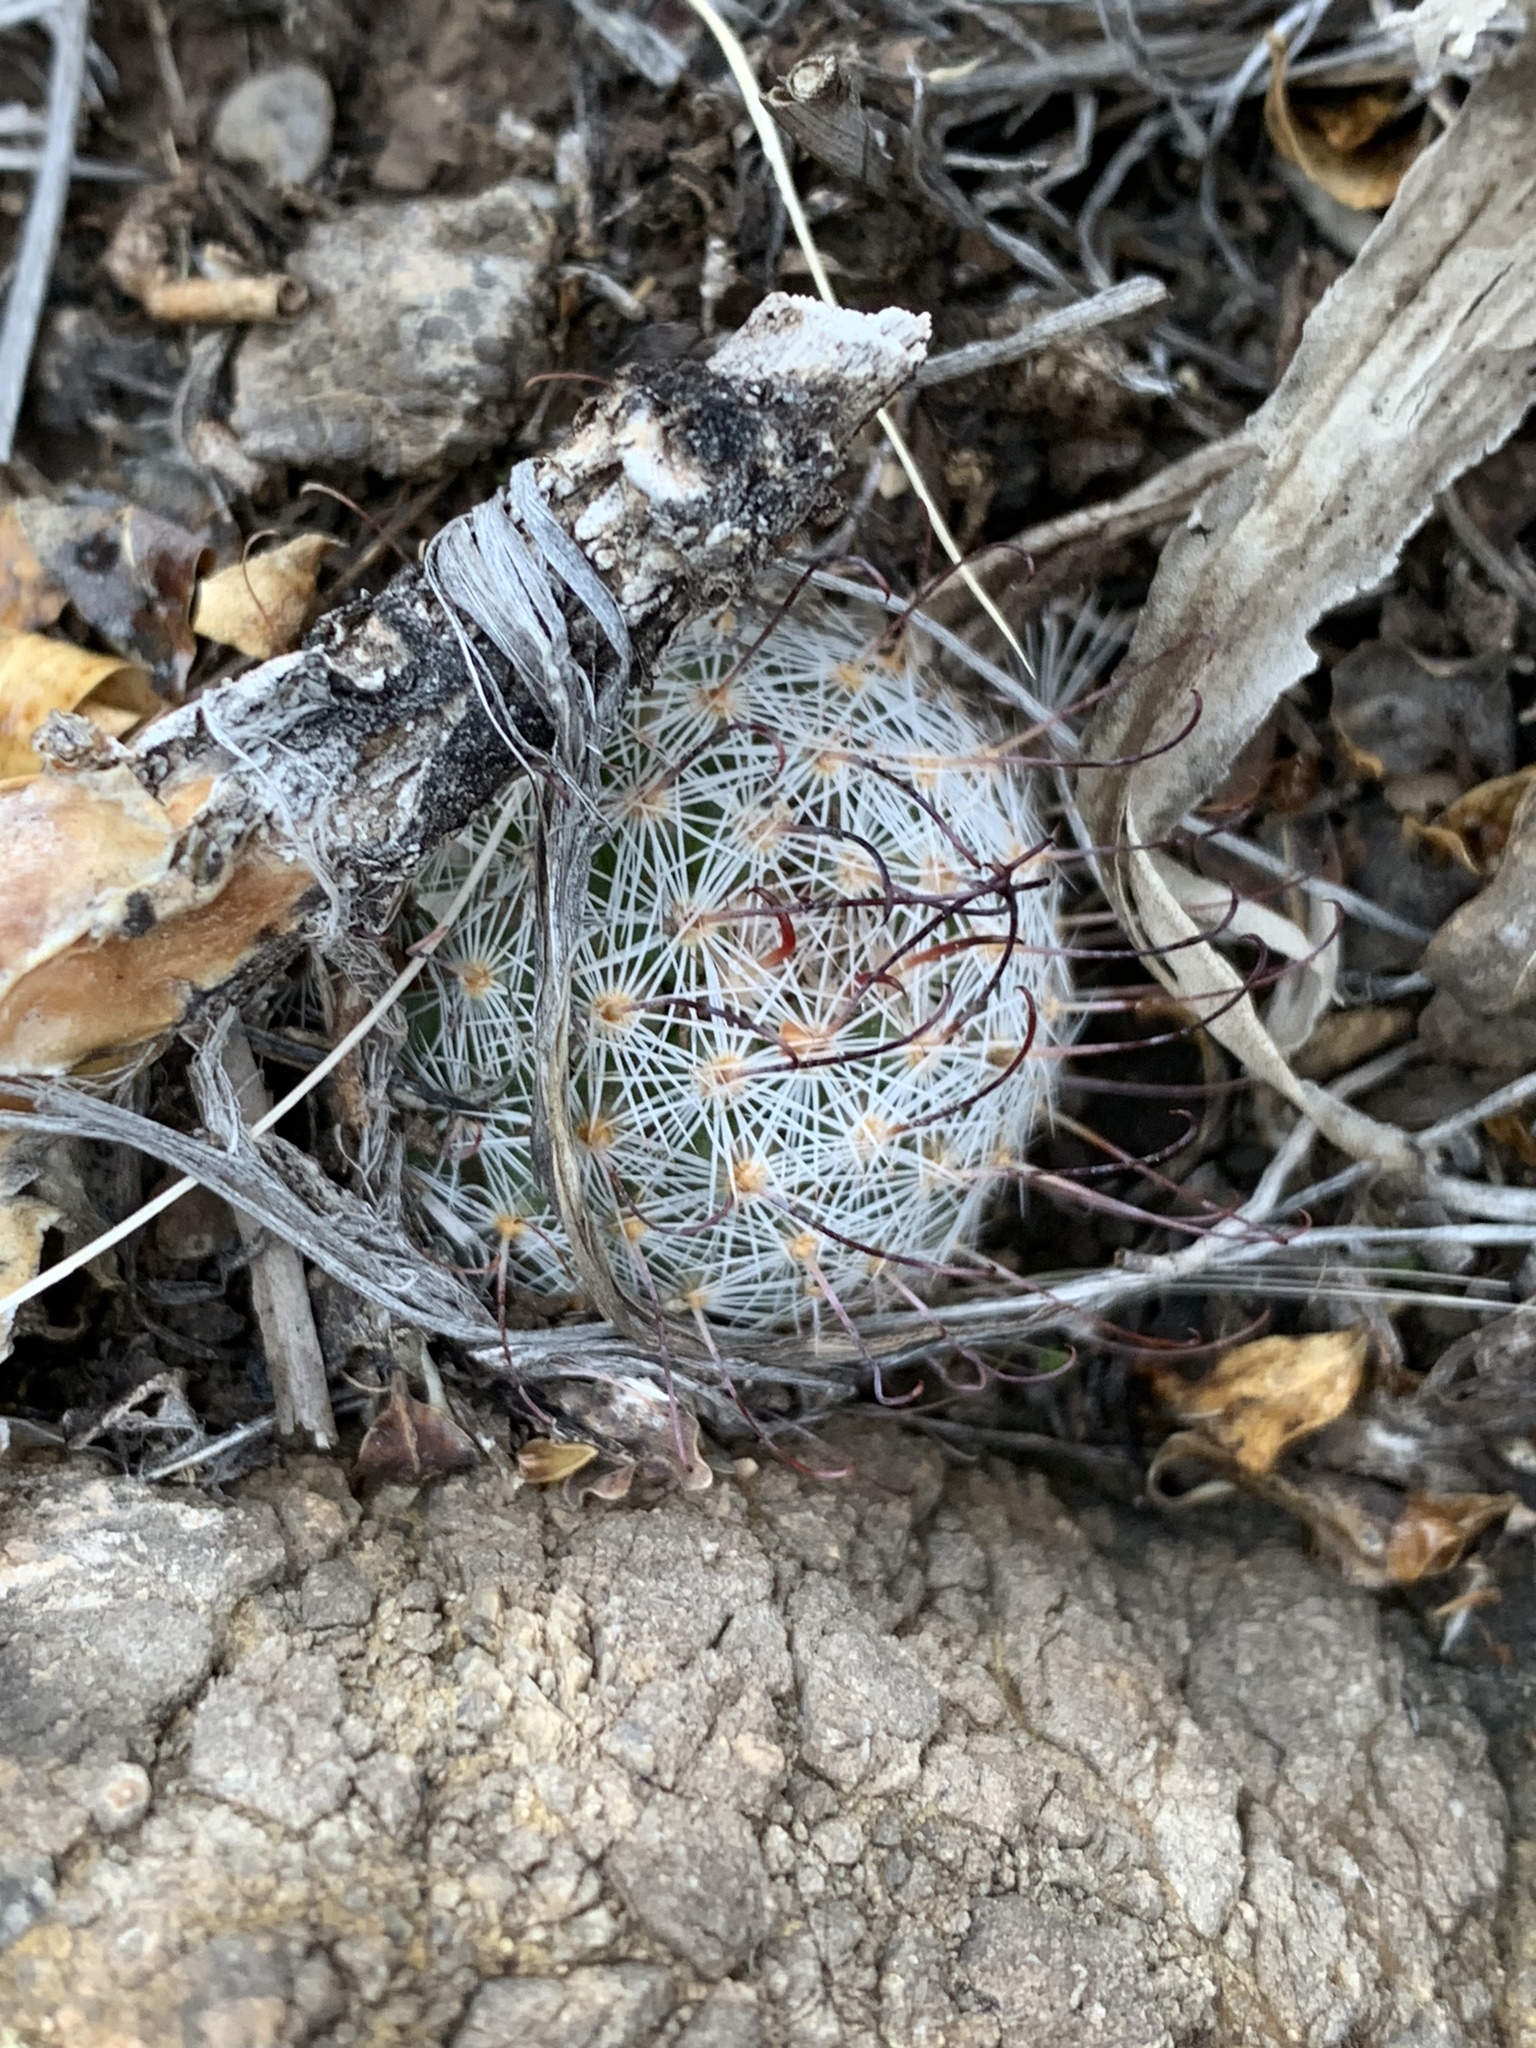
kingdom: Plantae
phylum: Tracheophyta
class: Magnoliopsida
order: Caryophyllales
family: Cactaceae
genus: Pelecyphora
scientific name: Pelecyphora tuberculosa
